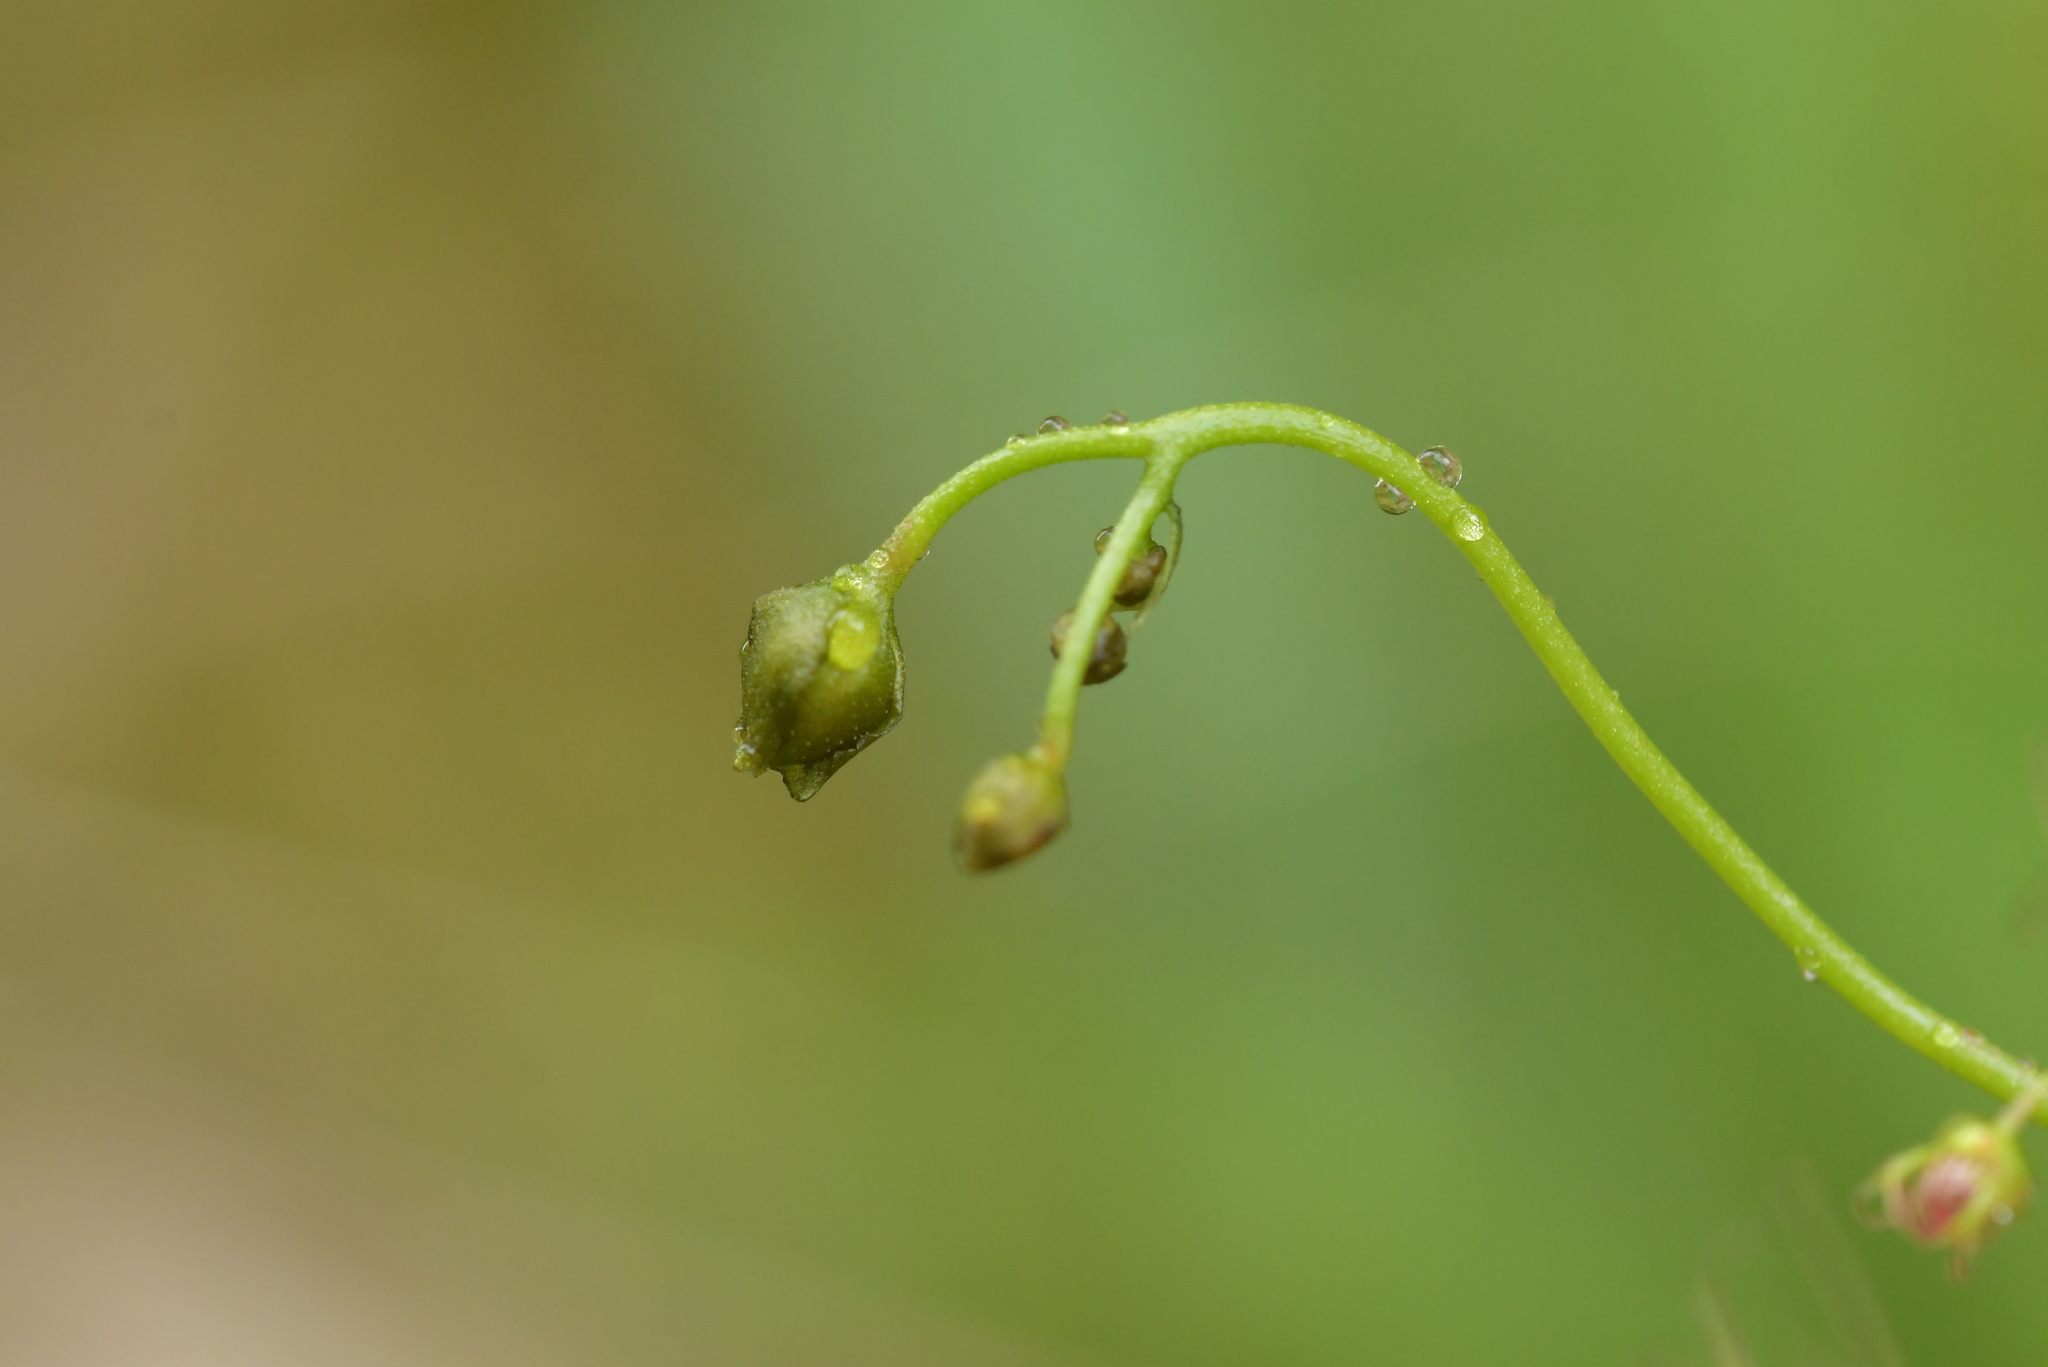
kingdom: Plantae
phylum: Tracheophyta
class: Magnoliopsida
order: Caryophyllales
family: Droseraceae
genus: Drosera
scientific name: Drosera peltata
